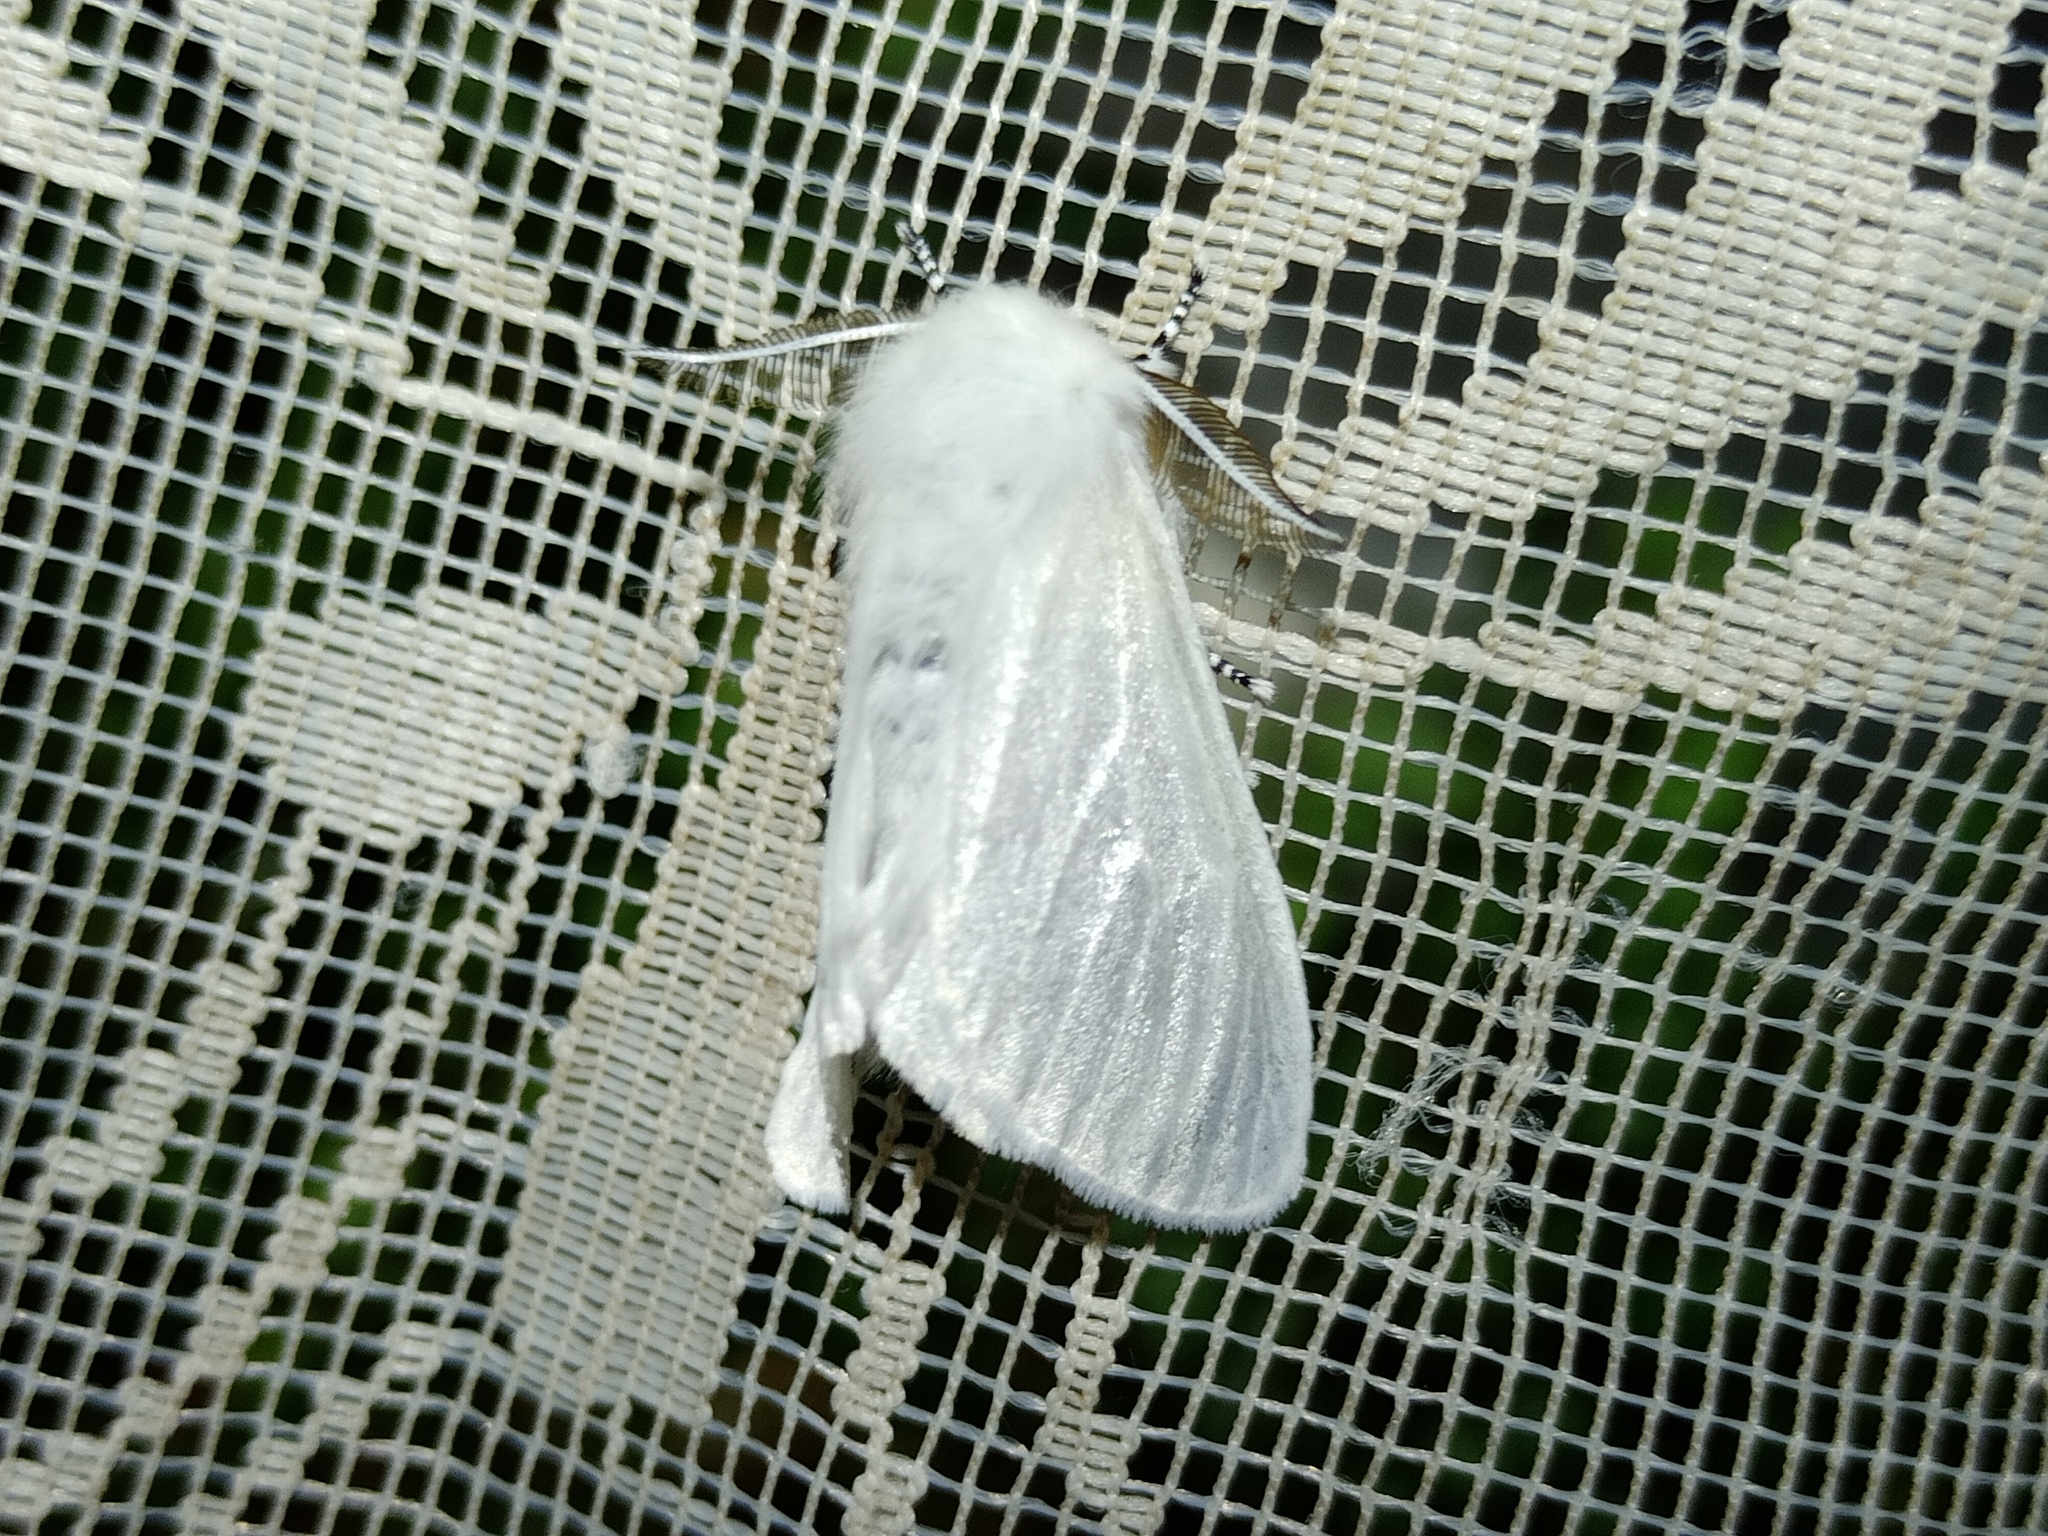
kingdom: Animalia
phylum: Arthropoda
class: Insecta
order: Lepidoptera
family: Erebidae
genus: Leucoma
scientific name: Leucoma salicis
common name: White satin moth
